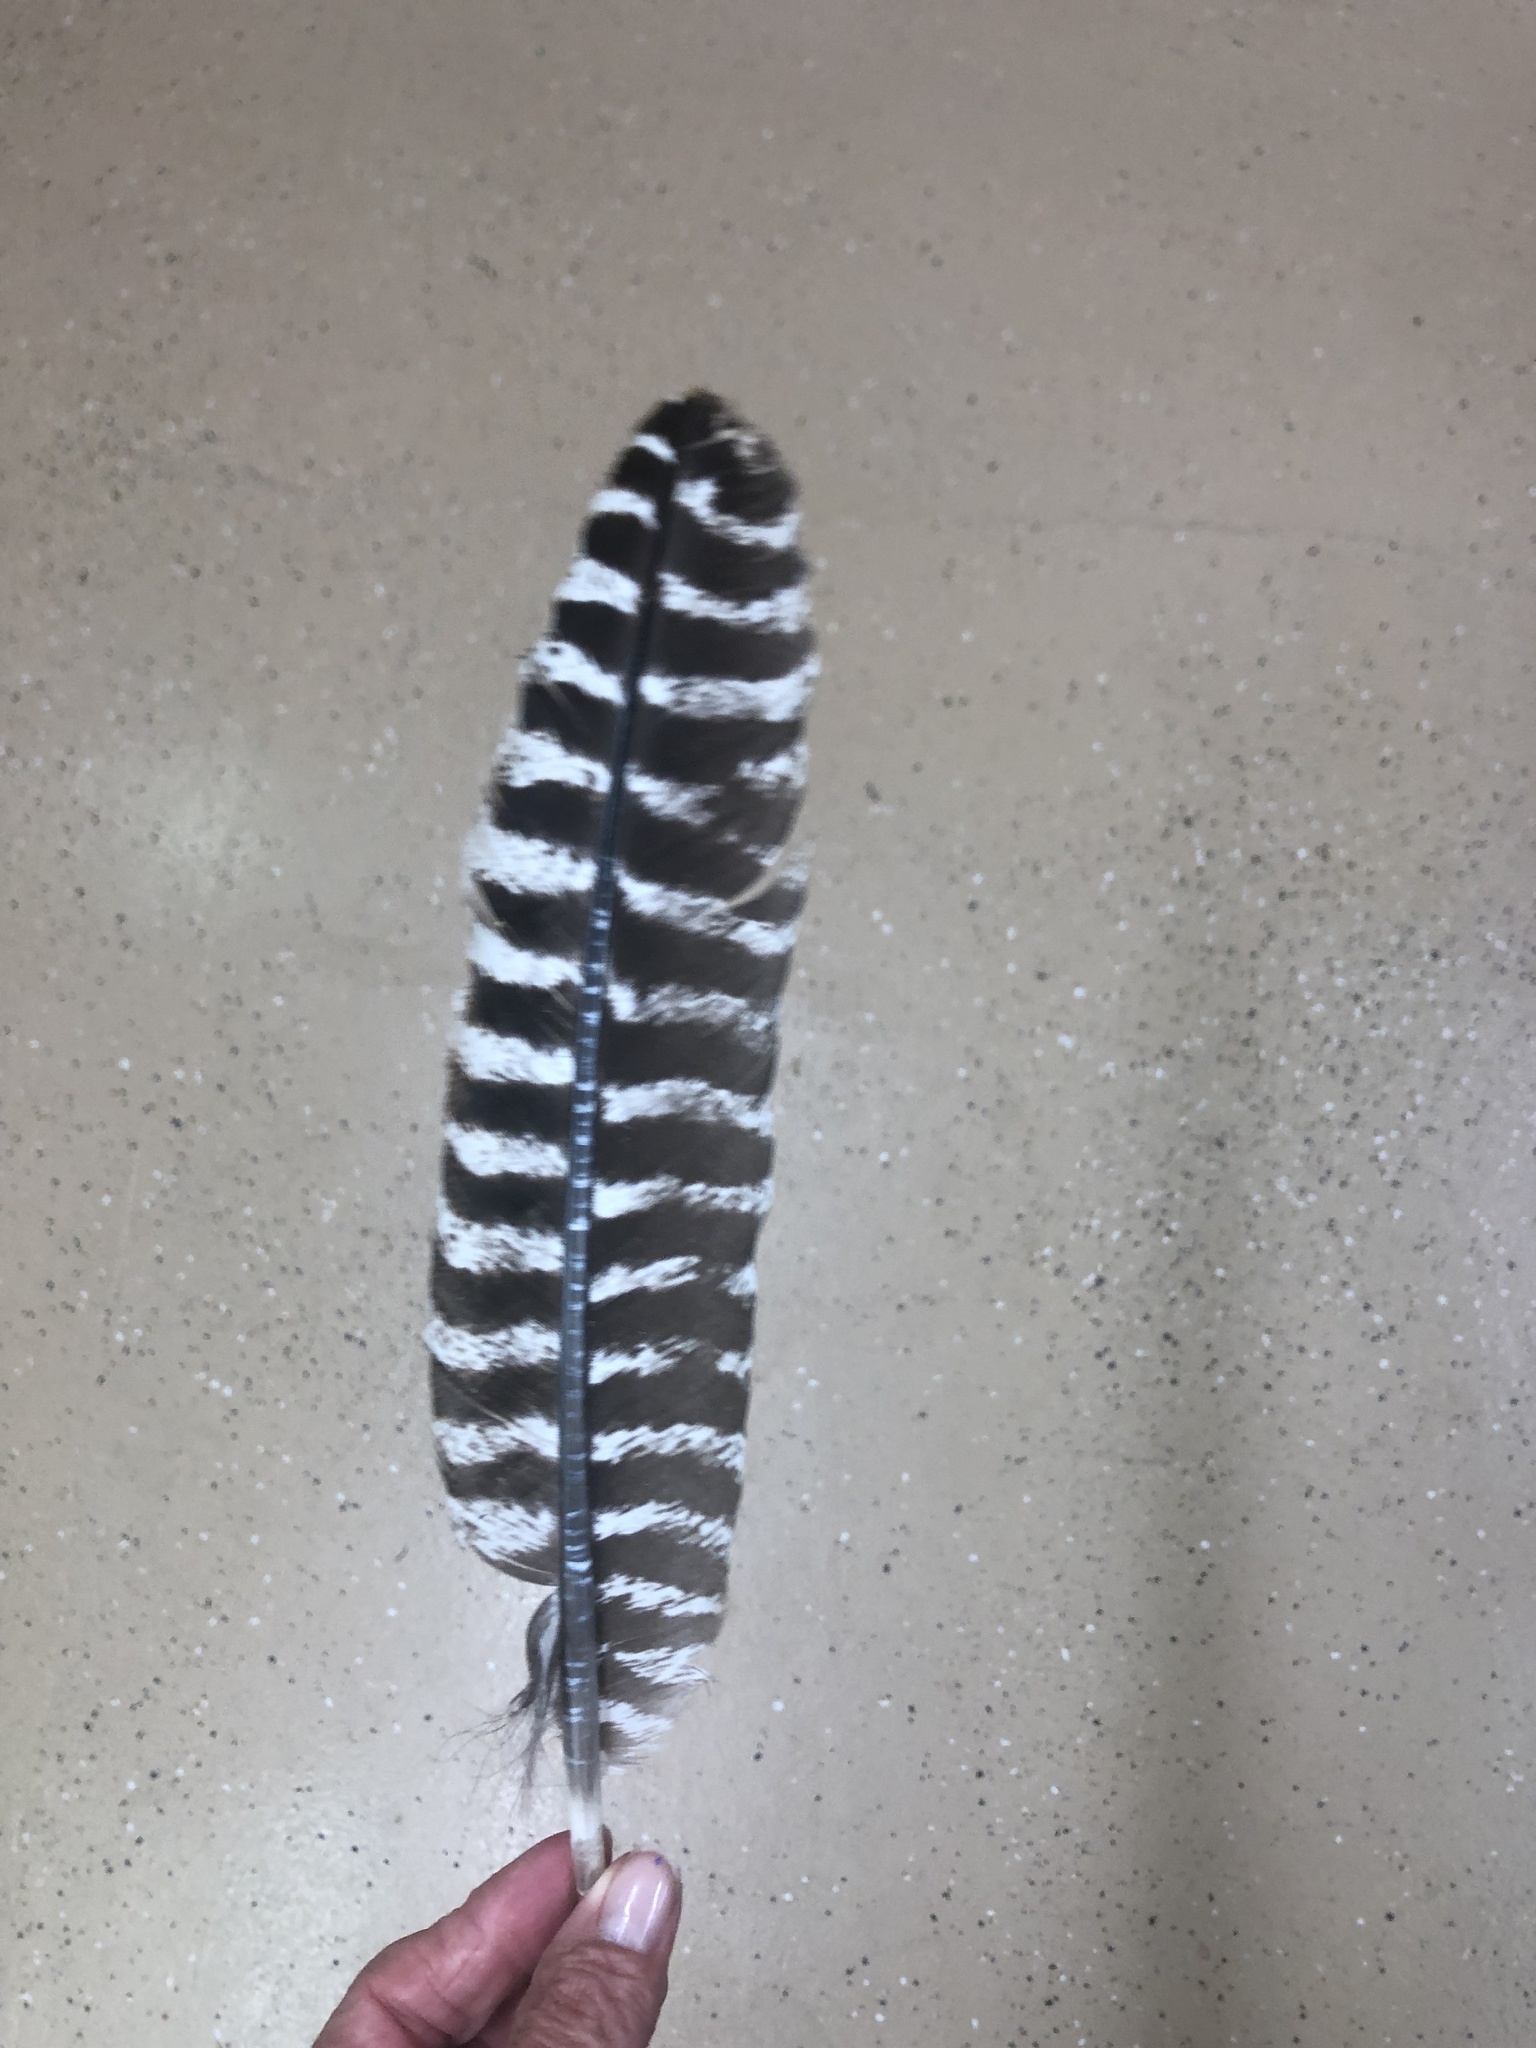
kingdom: Animalia
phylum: Chordata
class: Aves
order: Galliformes
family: Phasianidae
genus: Meleagris
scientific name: Meleagris gallopavo
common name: Wild turkey
